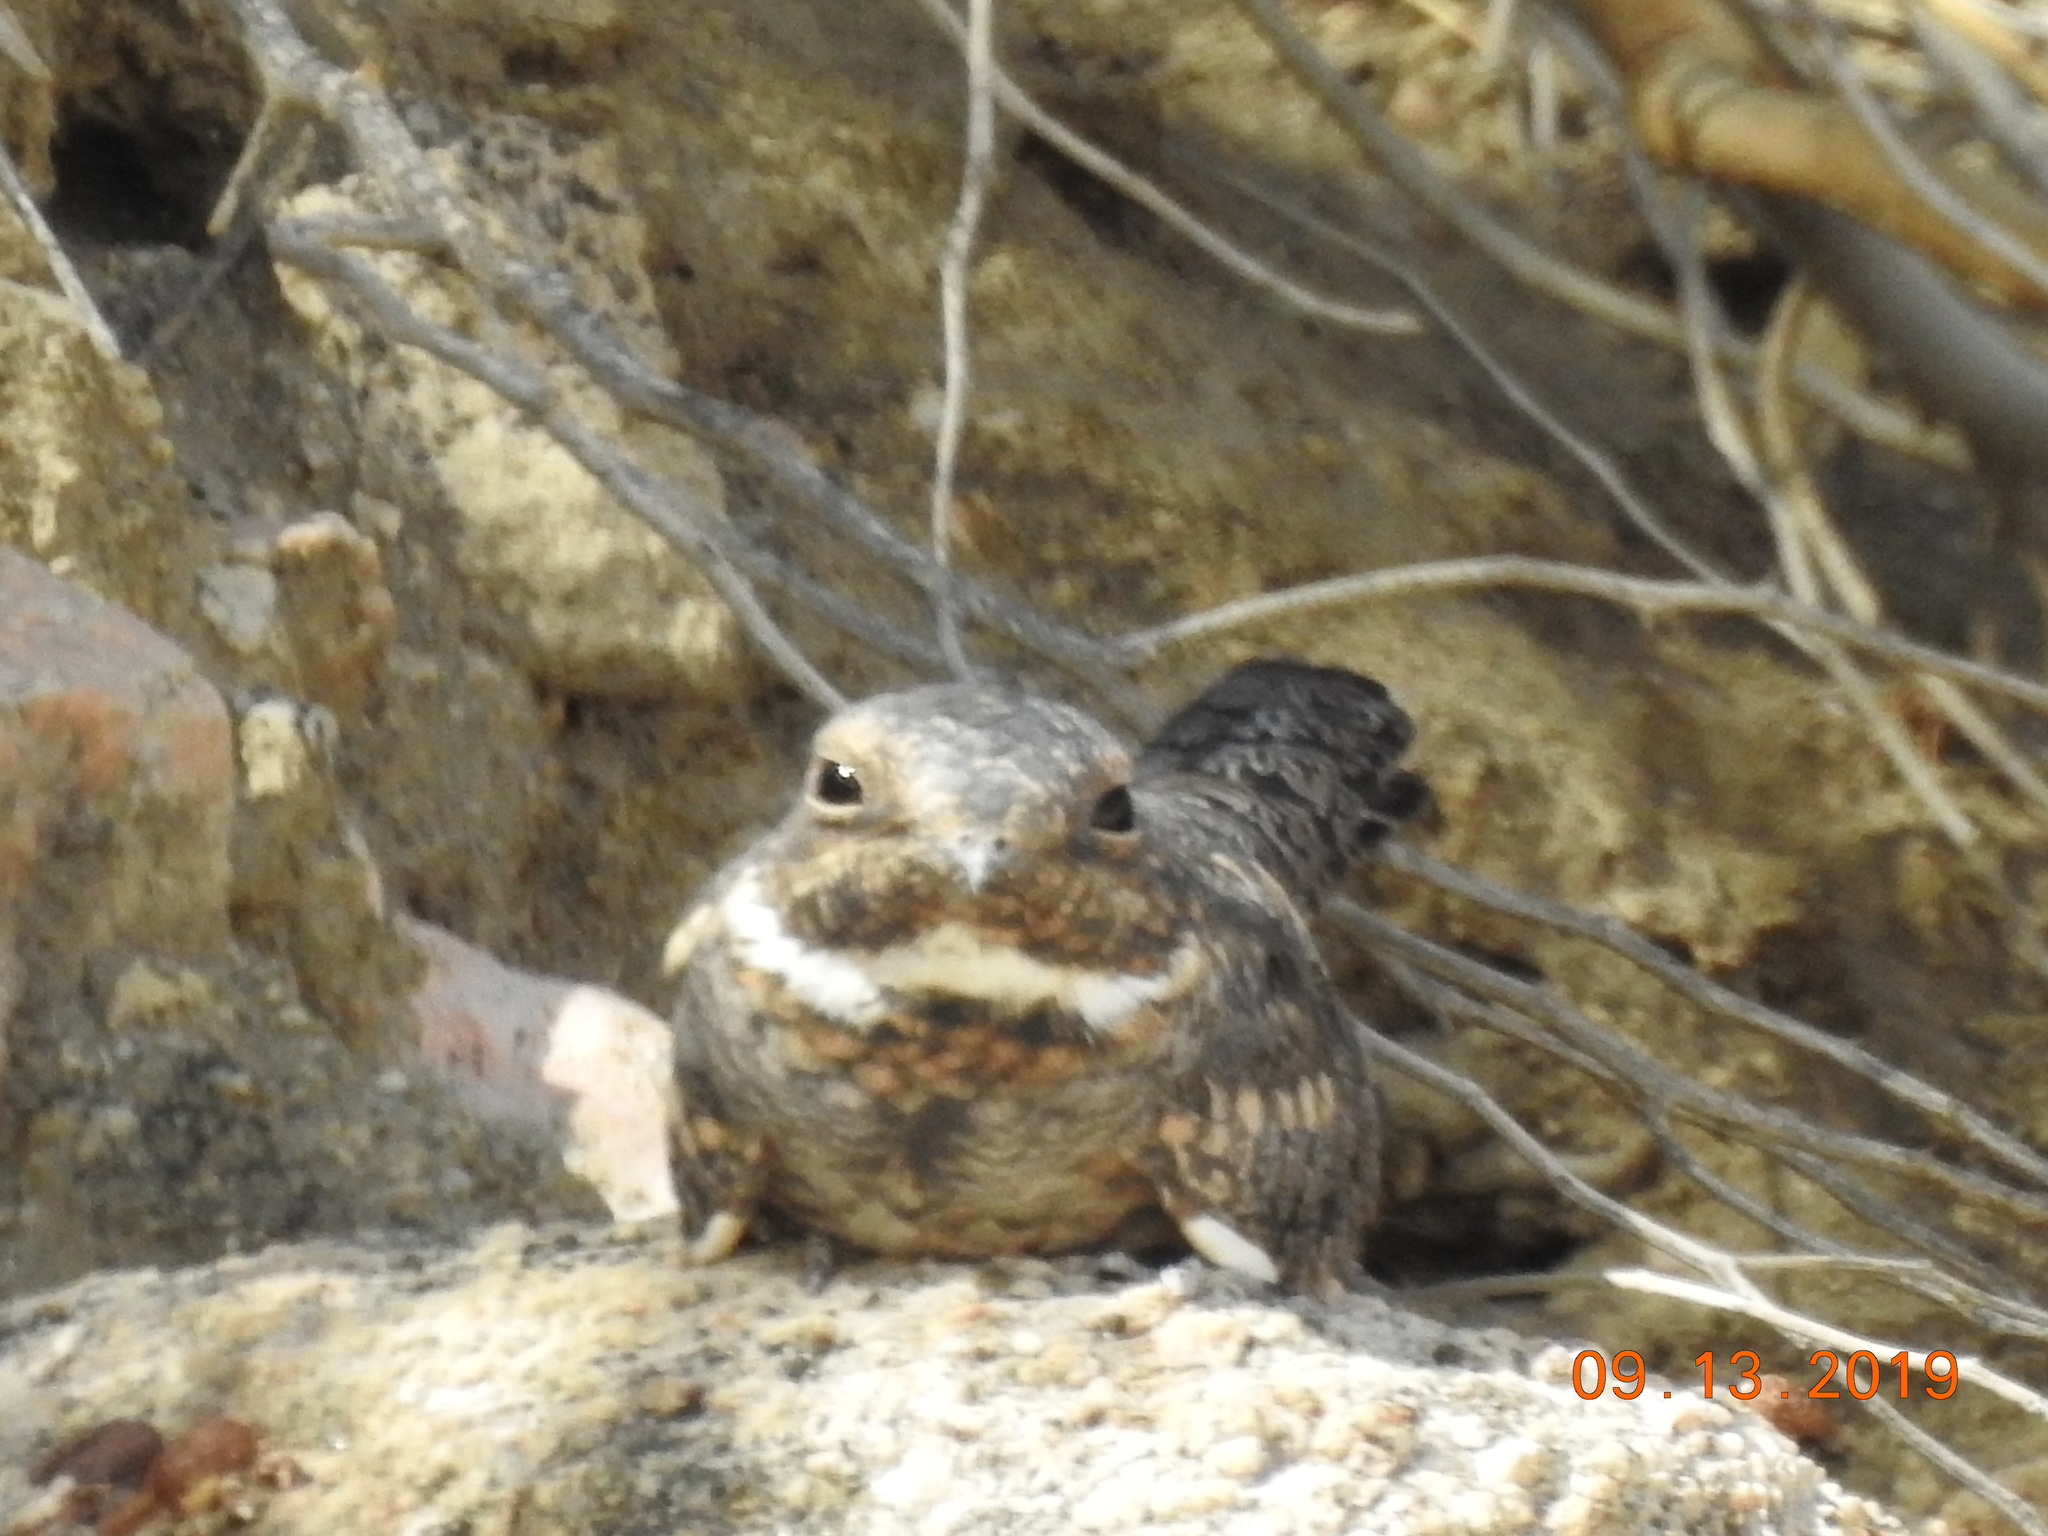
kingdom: Animalia
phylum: Chordata
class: Aves
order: Caprimulgiformes
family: Caprimulgidae
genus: Chordeiles
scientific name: Chordeiles acutipennis
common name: Lesser nighthawk
